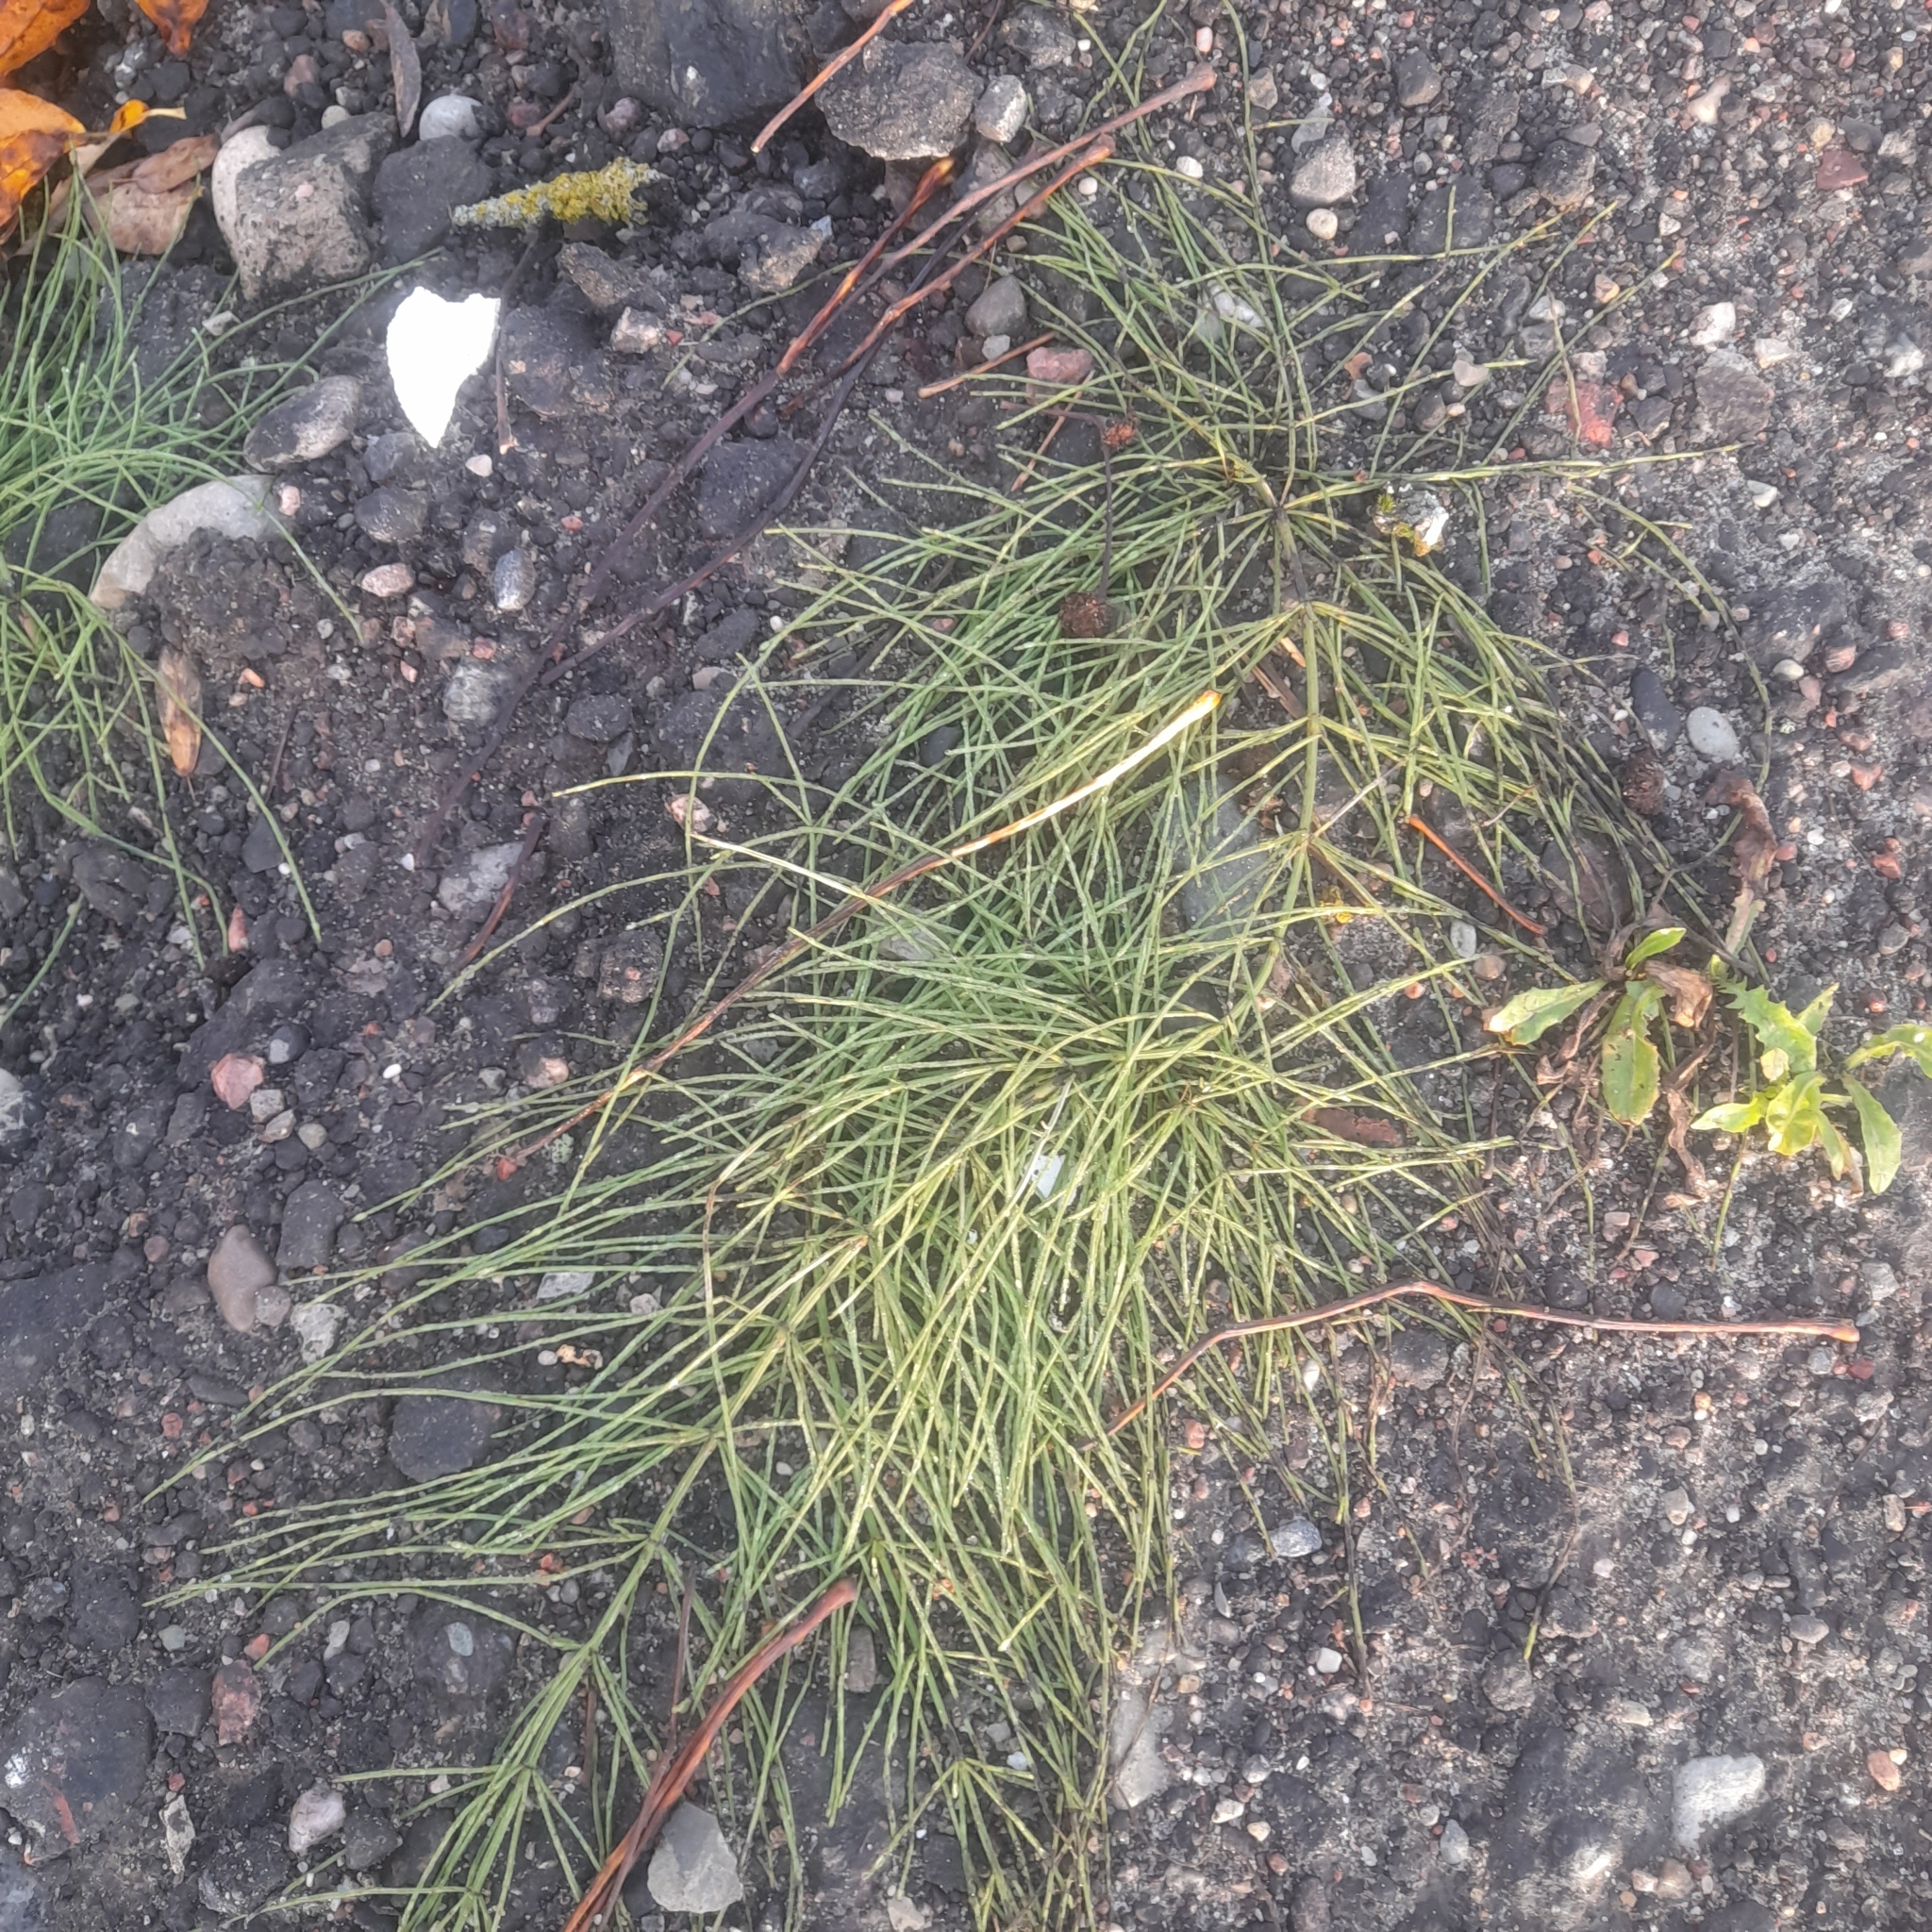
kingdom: Plantae
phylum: Tracheophyta
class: Polypodiopsida
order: Equisetales
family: Equisetaceae
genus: Equisetum
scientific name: Equisetum arvense
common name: Field horsetail
